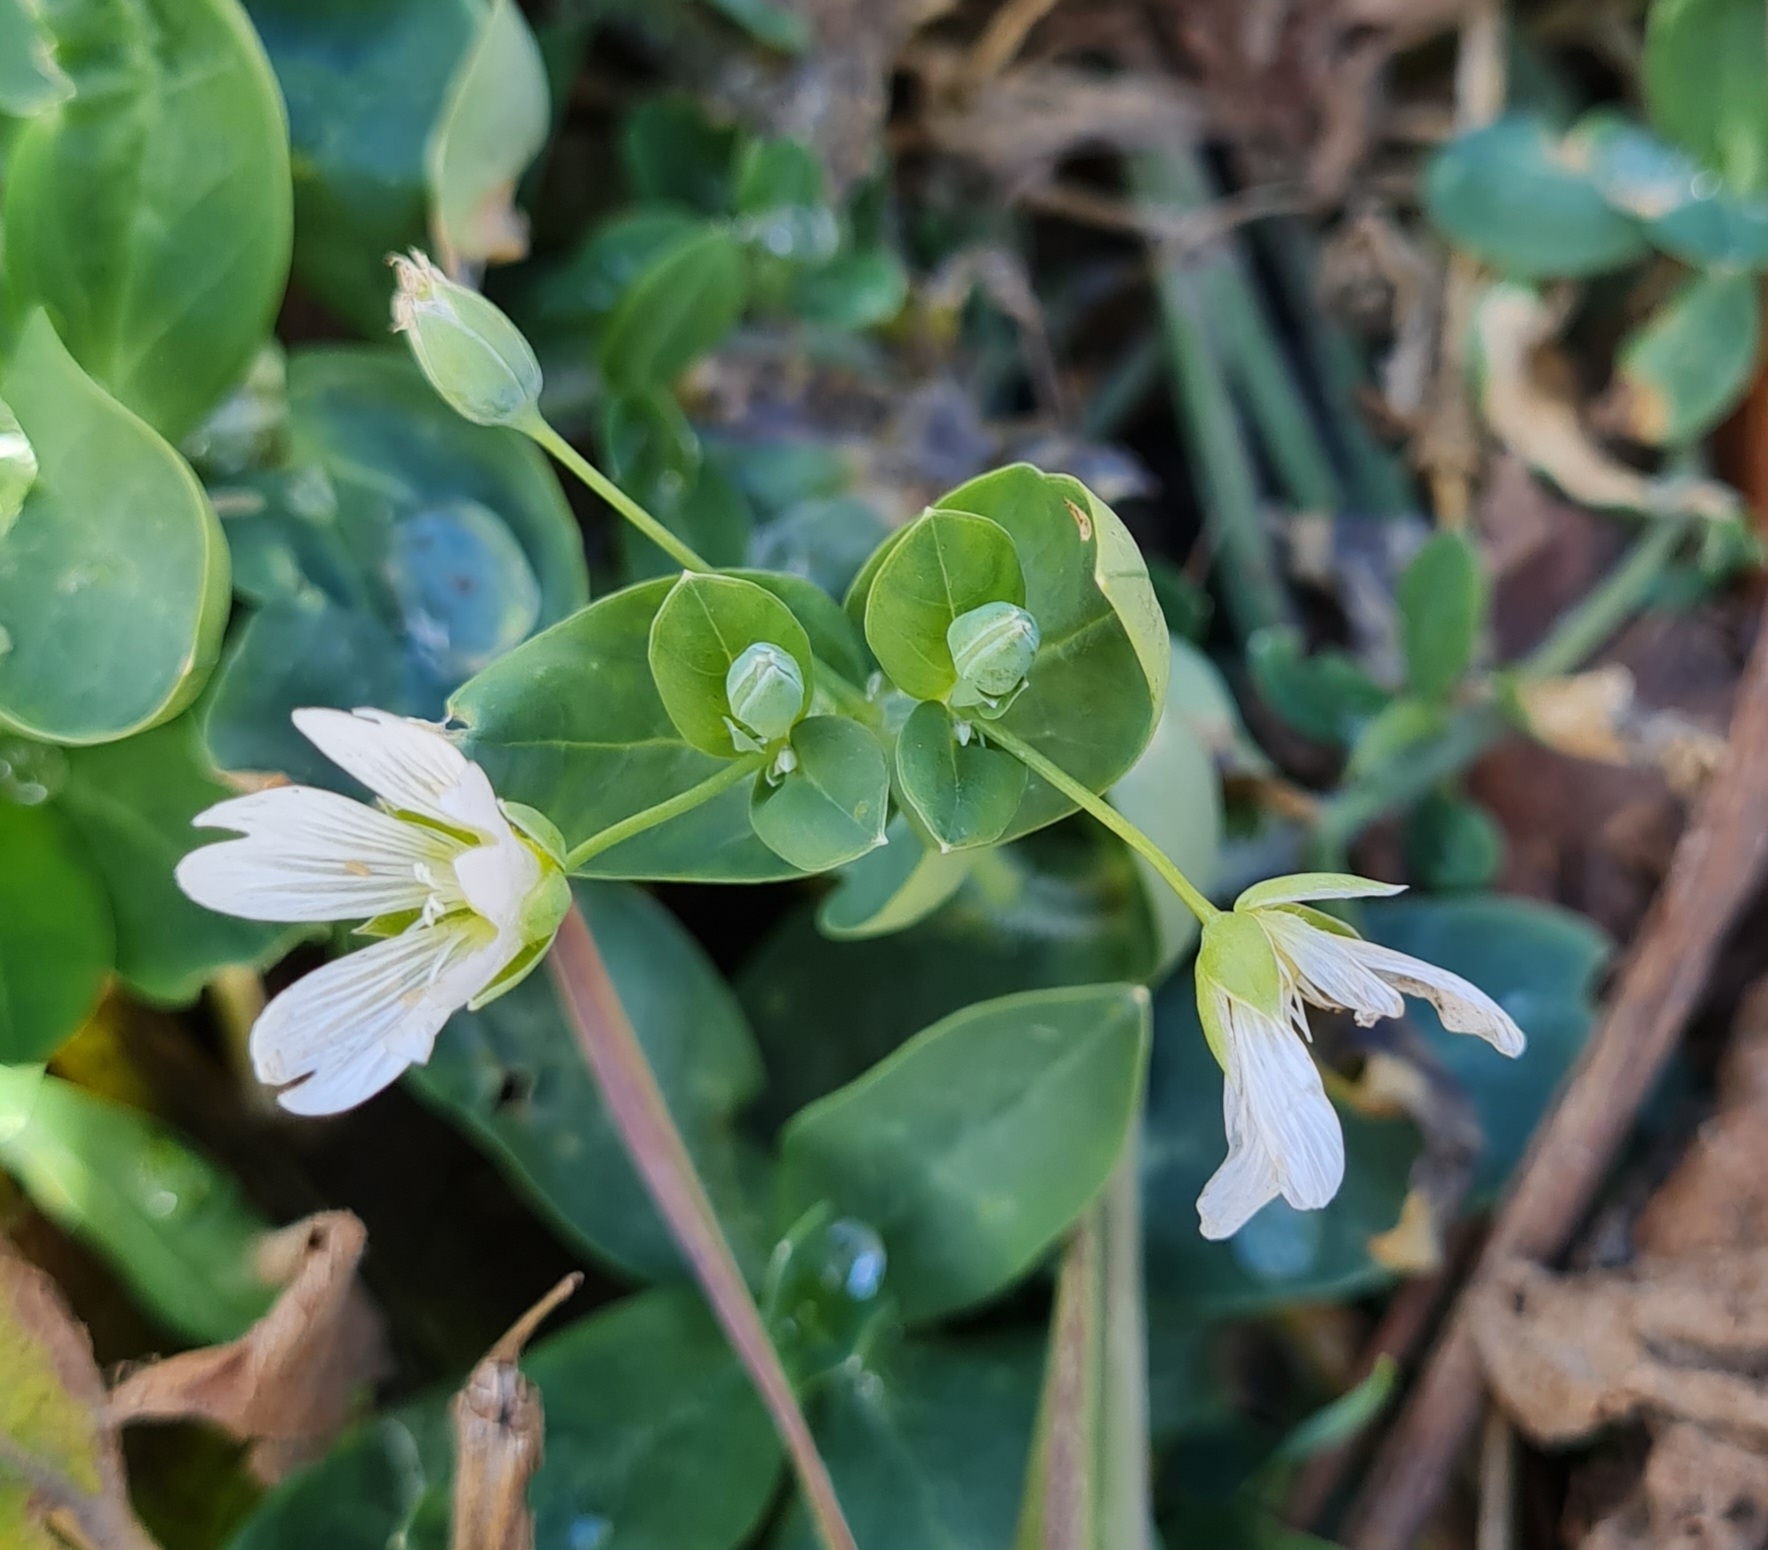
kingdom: Plantae
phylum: Tracheophyta
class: Magnoliopsida
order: Caryophyllales
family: Caryophyllaceae
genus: Cerastium
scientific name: Cerastium davuricum
